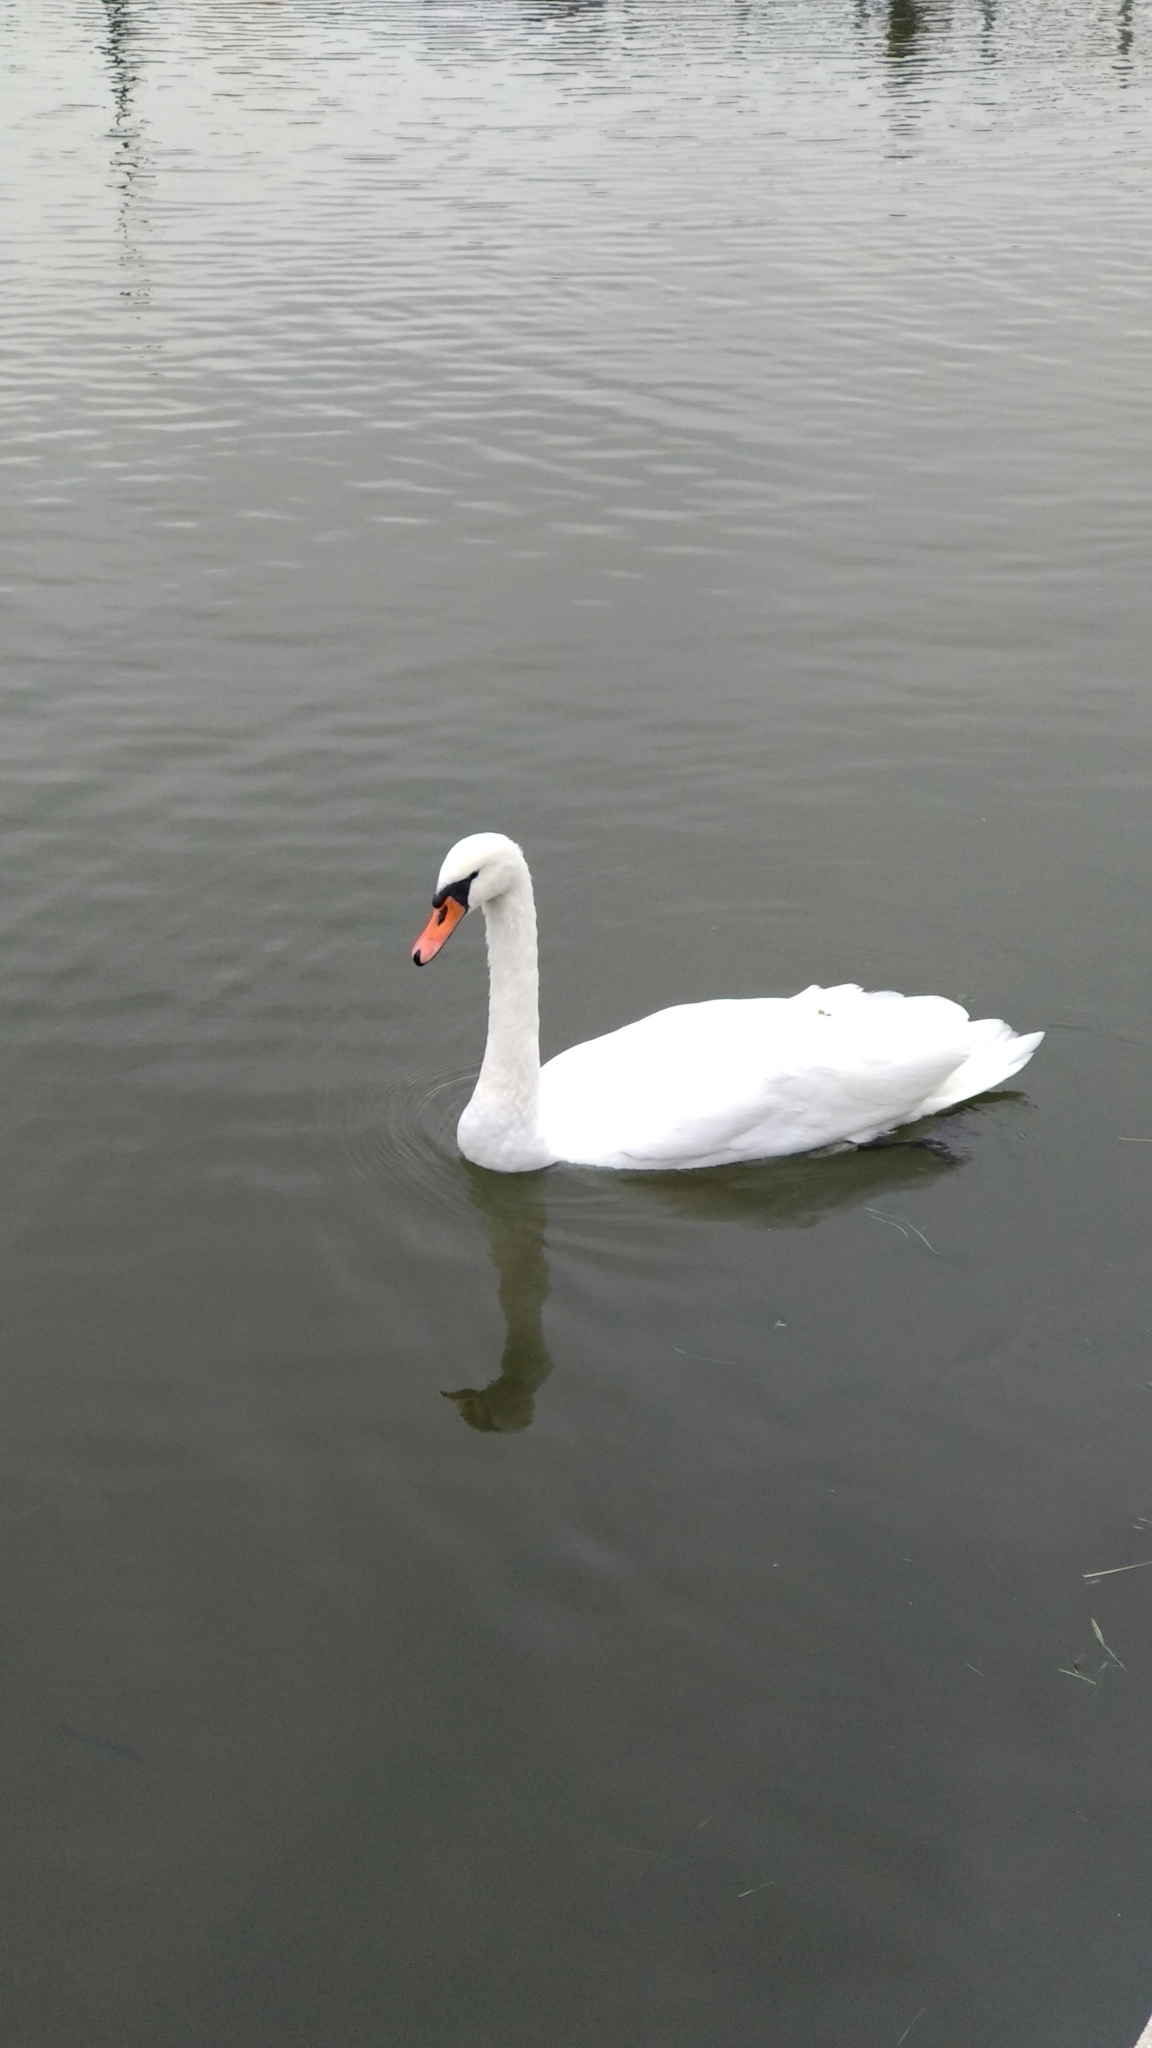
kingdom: Animalia
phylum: Chordata
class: Aves
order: Anseriformes
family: Anatidae
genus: Cygnus
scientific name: Cygnus olor
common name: Mute swan
